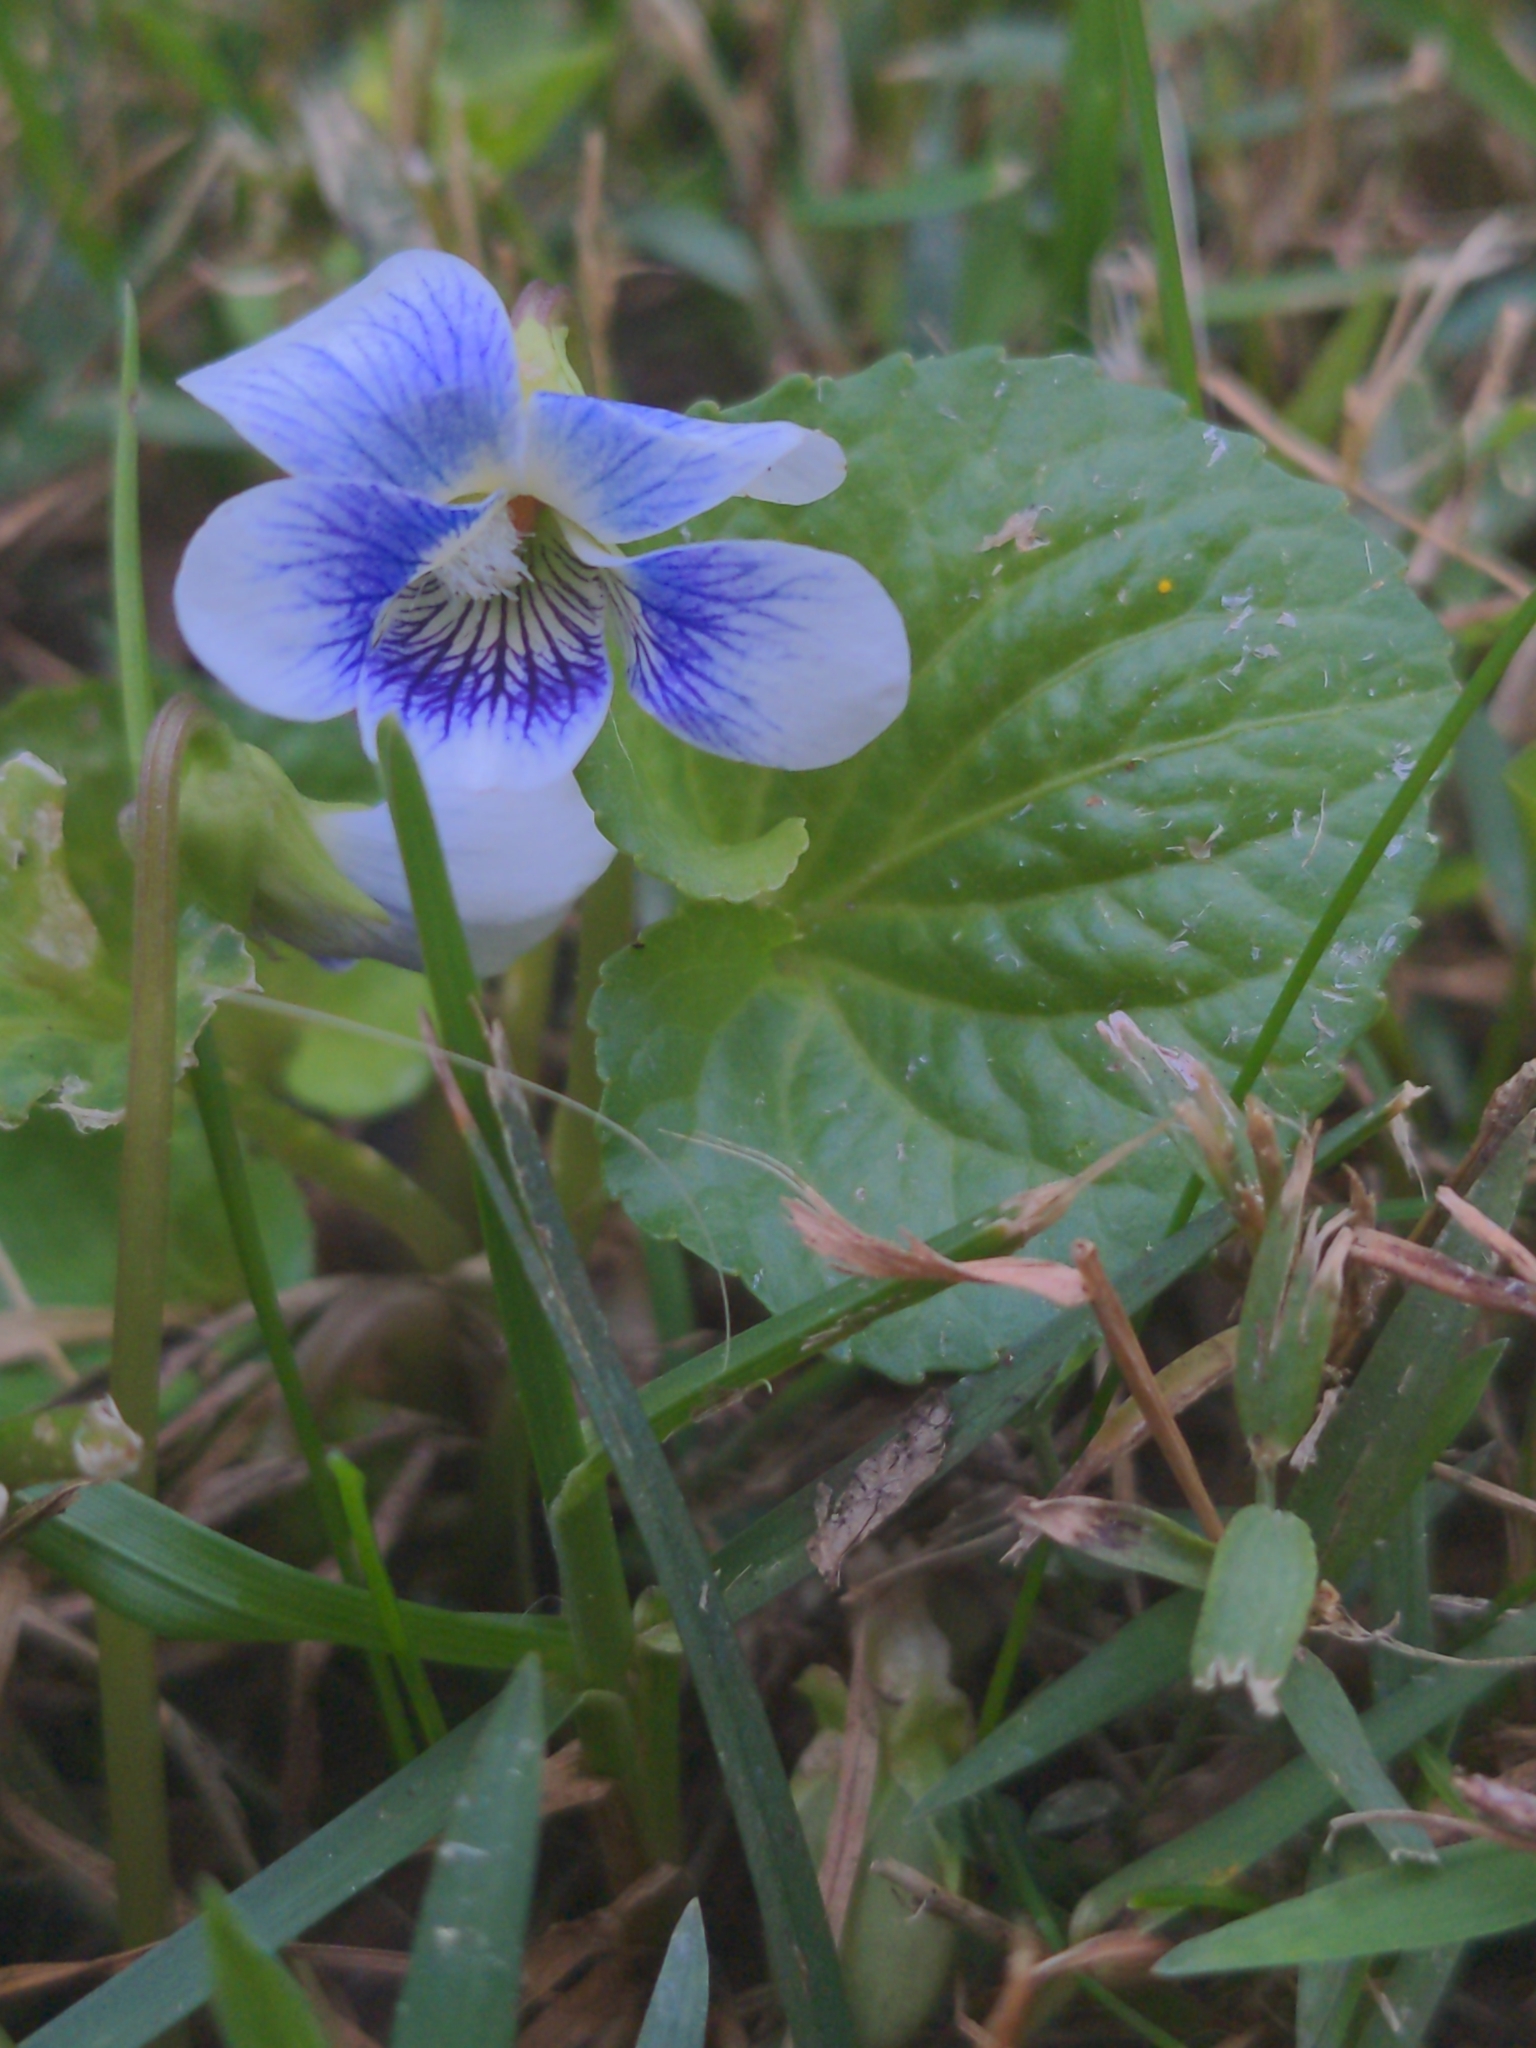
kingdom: Plantae
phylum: Tracheophyta
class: Magnoliopsida
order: Malpighiales
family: Violaceae
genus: Viola
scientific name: Viola sororia
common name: Dooryard violet
